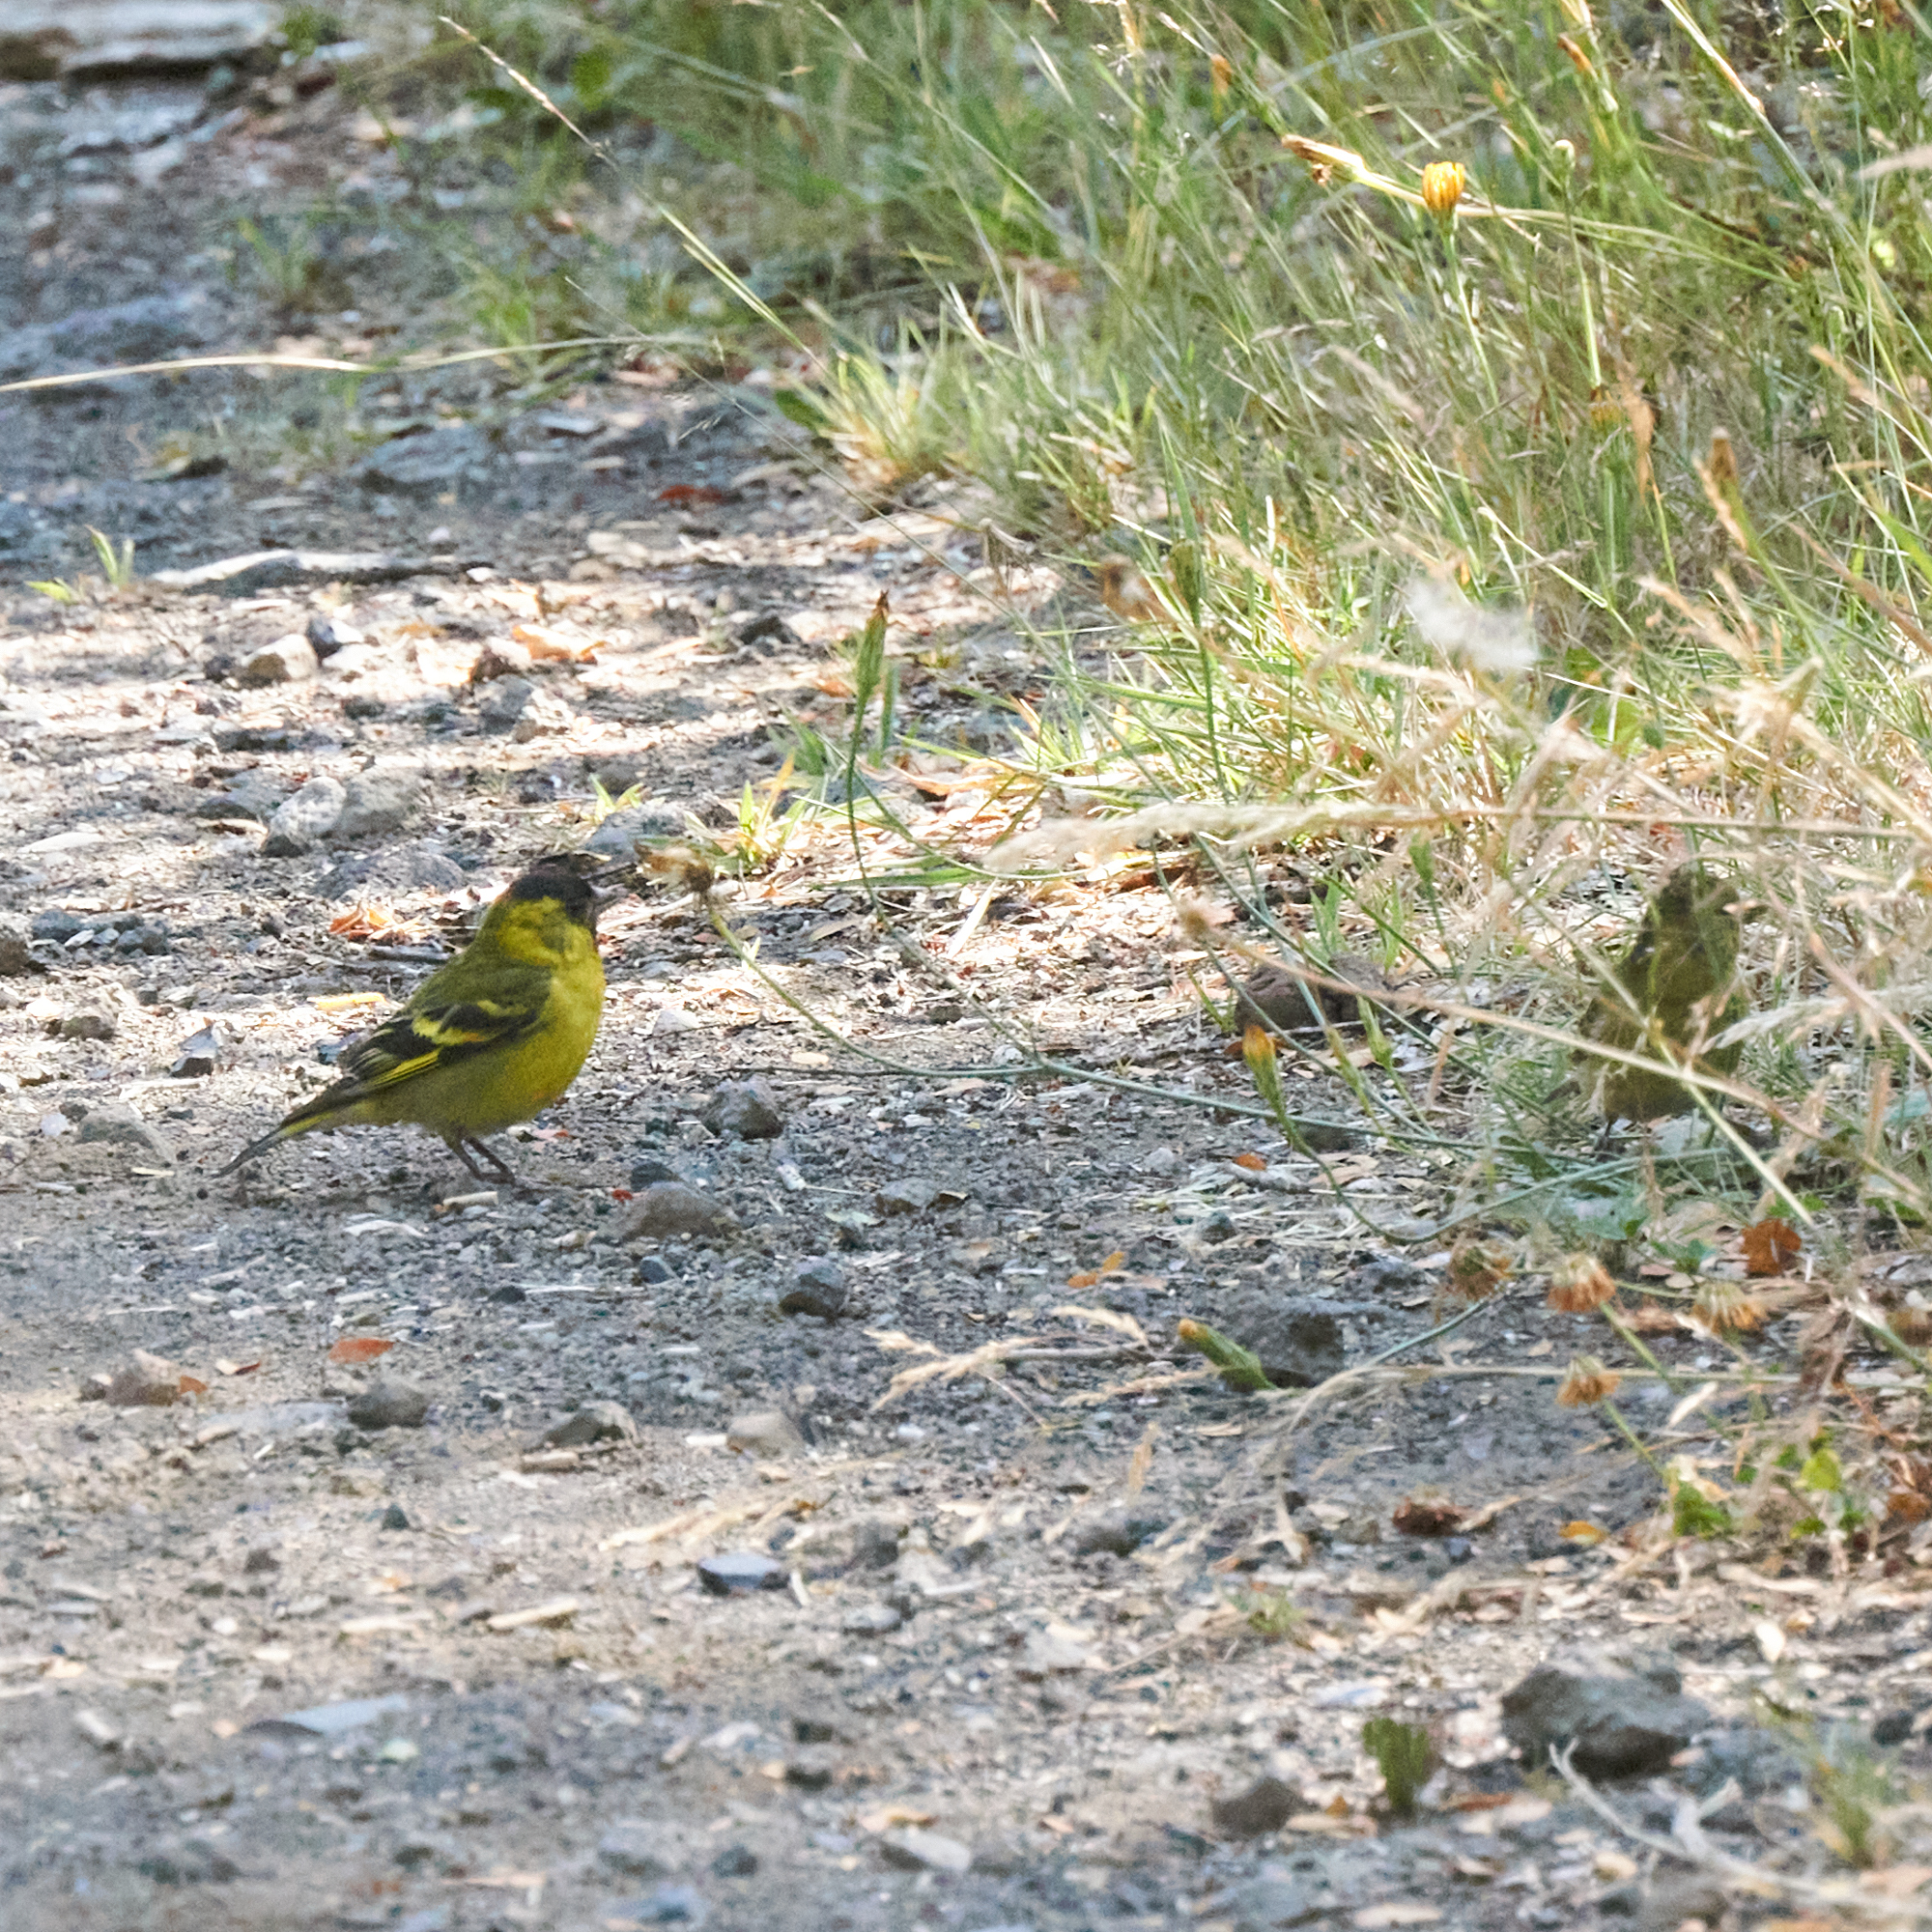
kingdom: Animalia
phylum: Chordata
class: Aves
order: Passeriformes
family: Fringillidae
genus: Spinus
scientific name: Spinus barbatus
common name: Black-chinned siskin
